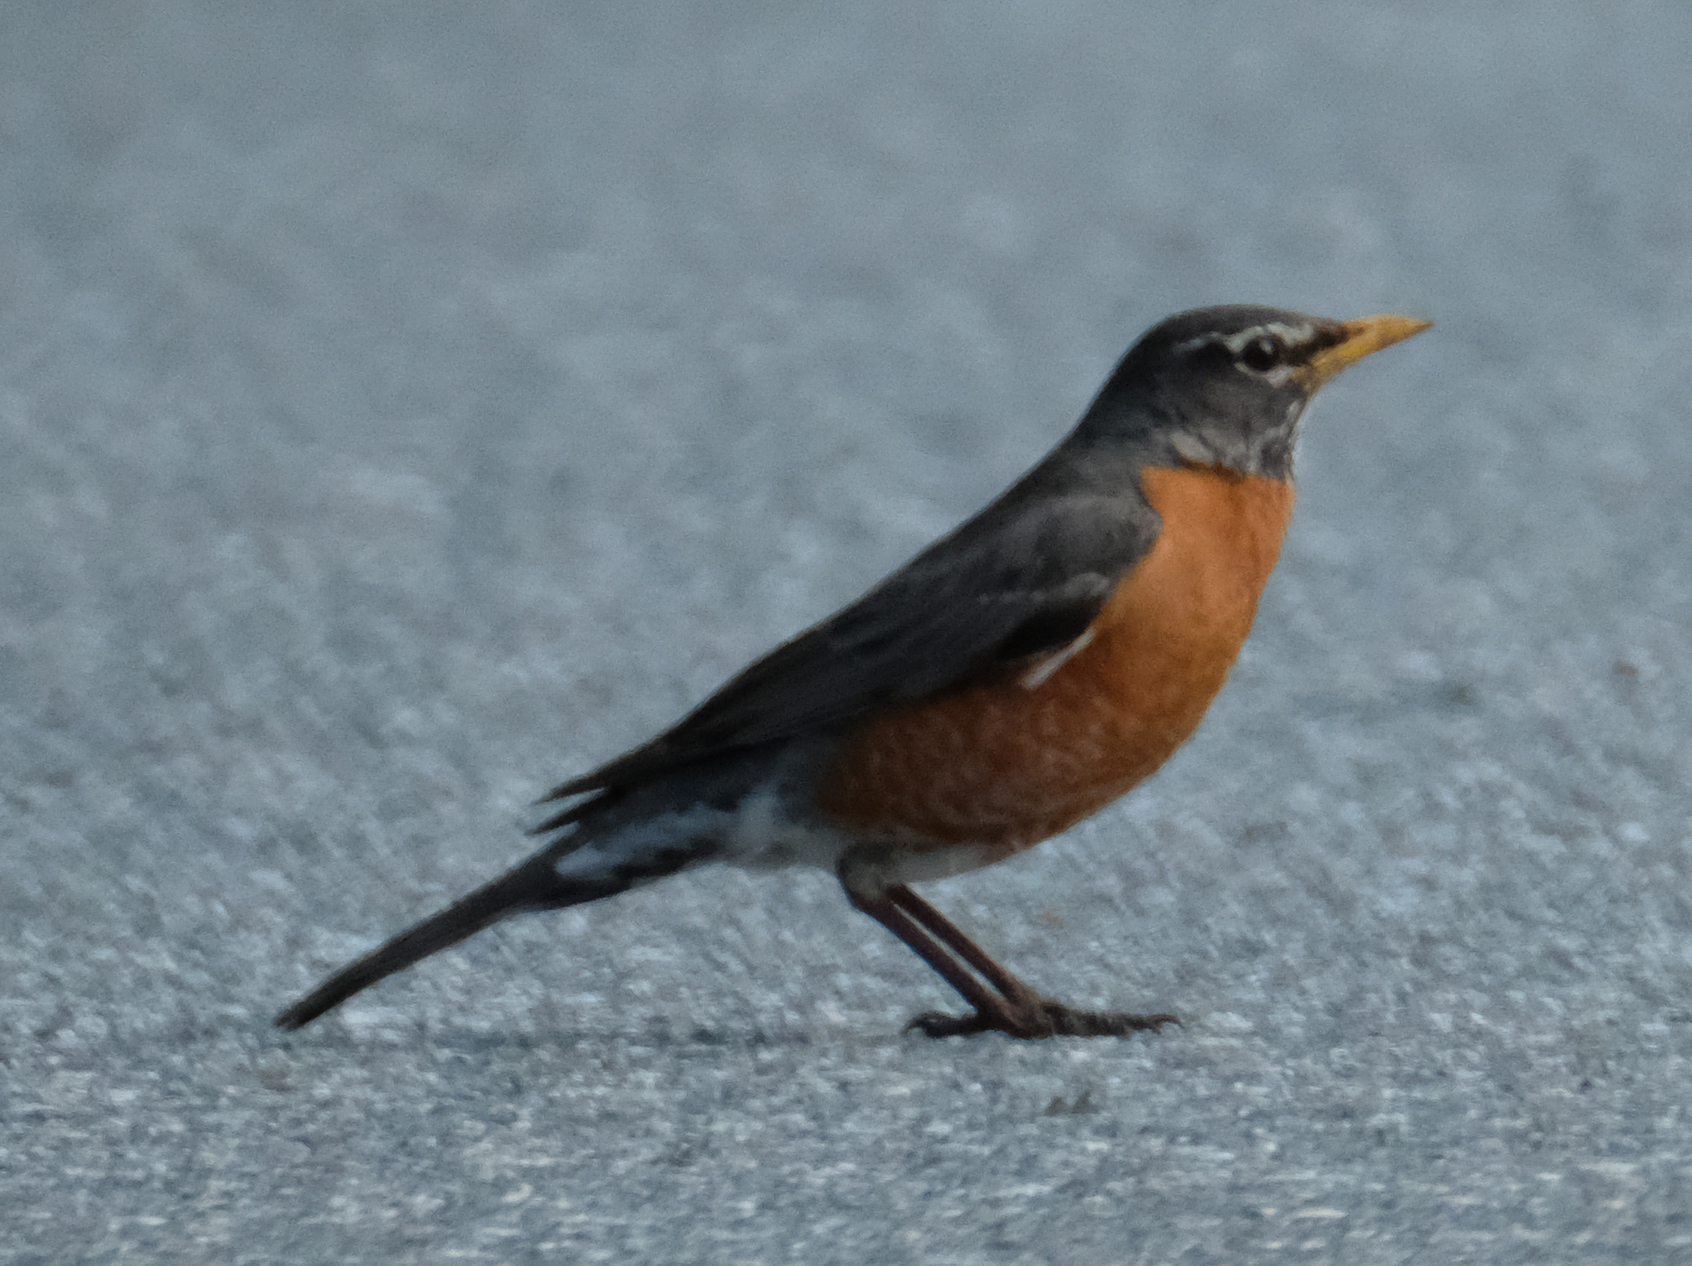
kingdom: Animalia
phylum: Chordata
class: Aves
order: Passeriformes
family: Turdidae
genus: Turdus
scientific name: Turdus migratorius
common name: American robin
